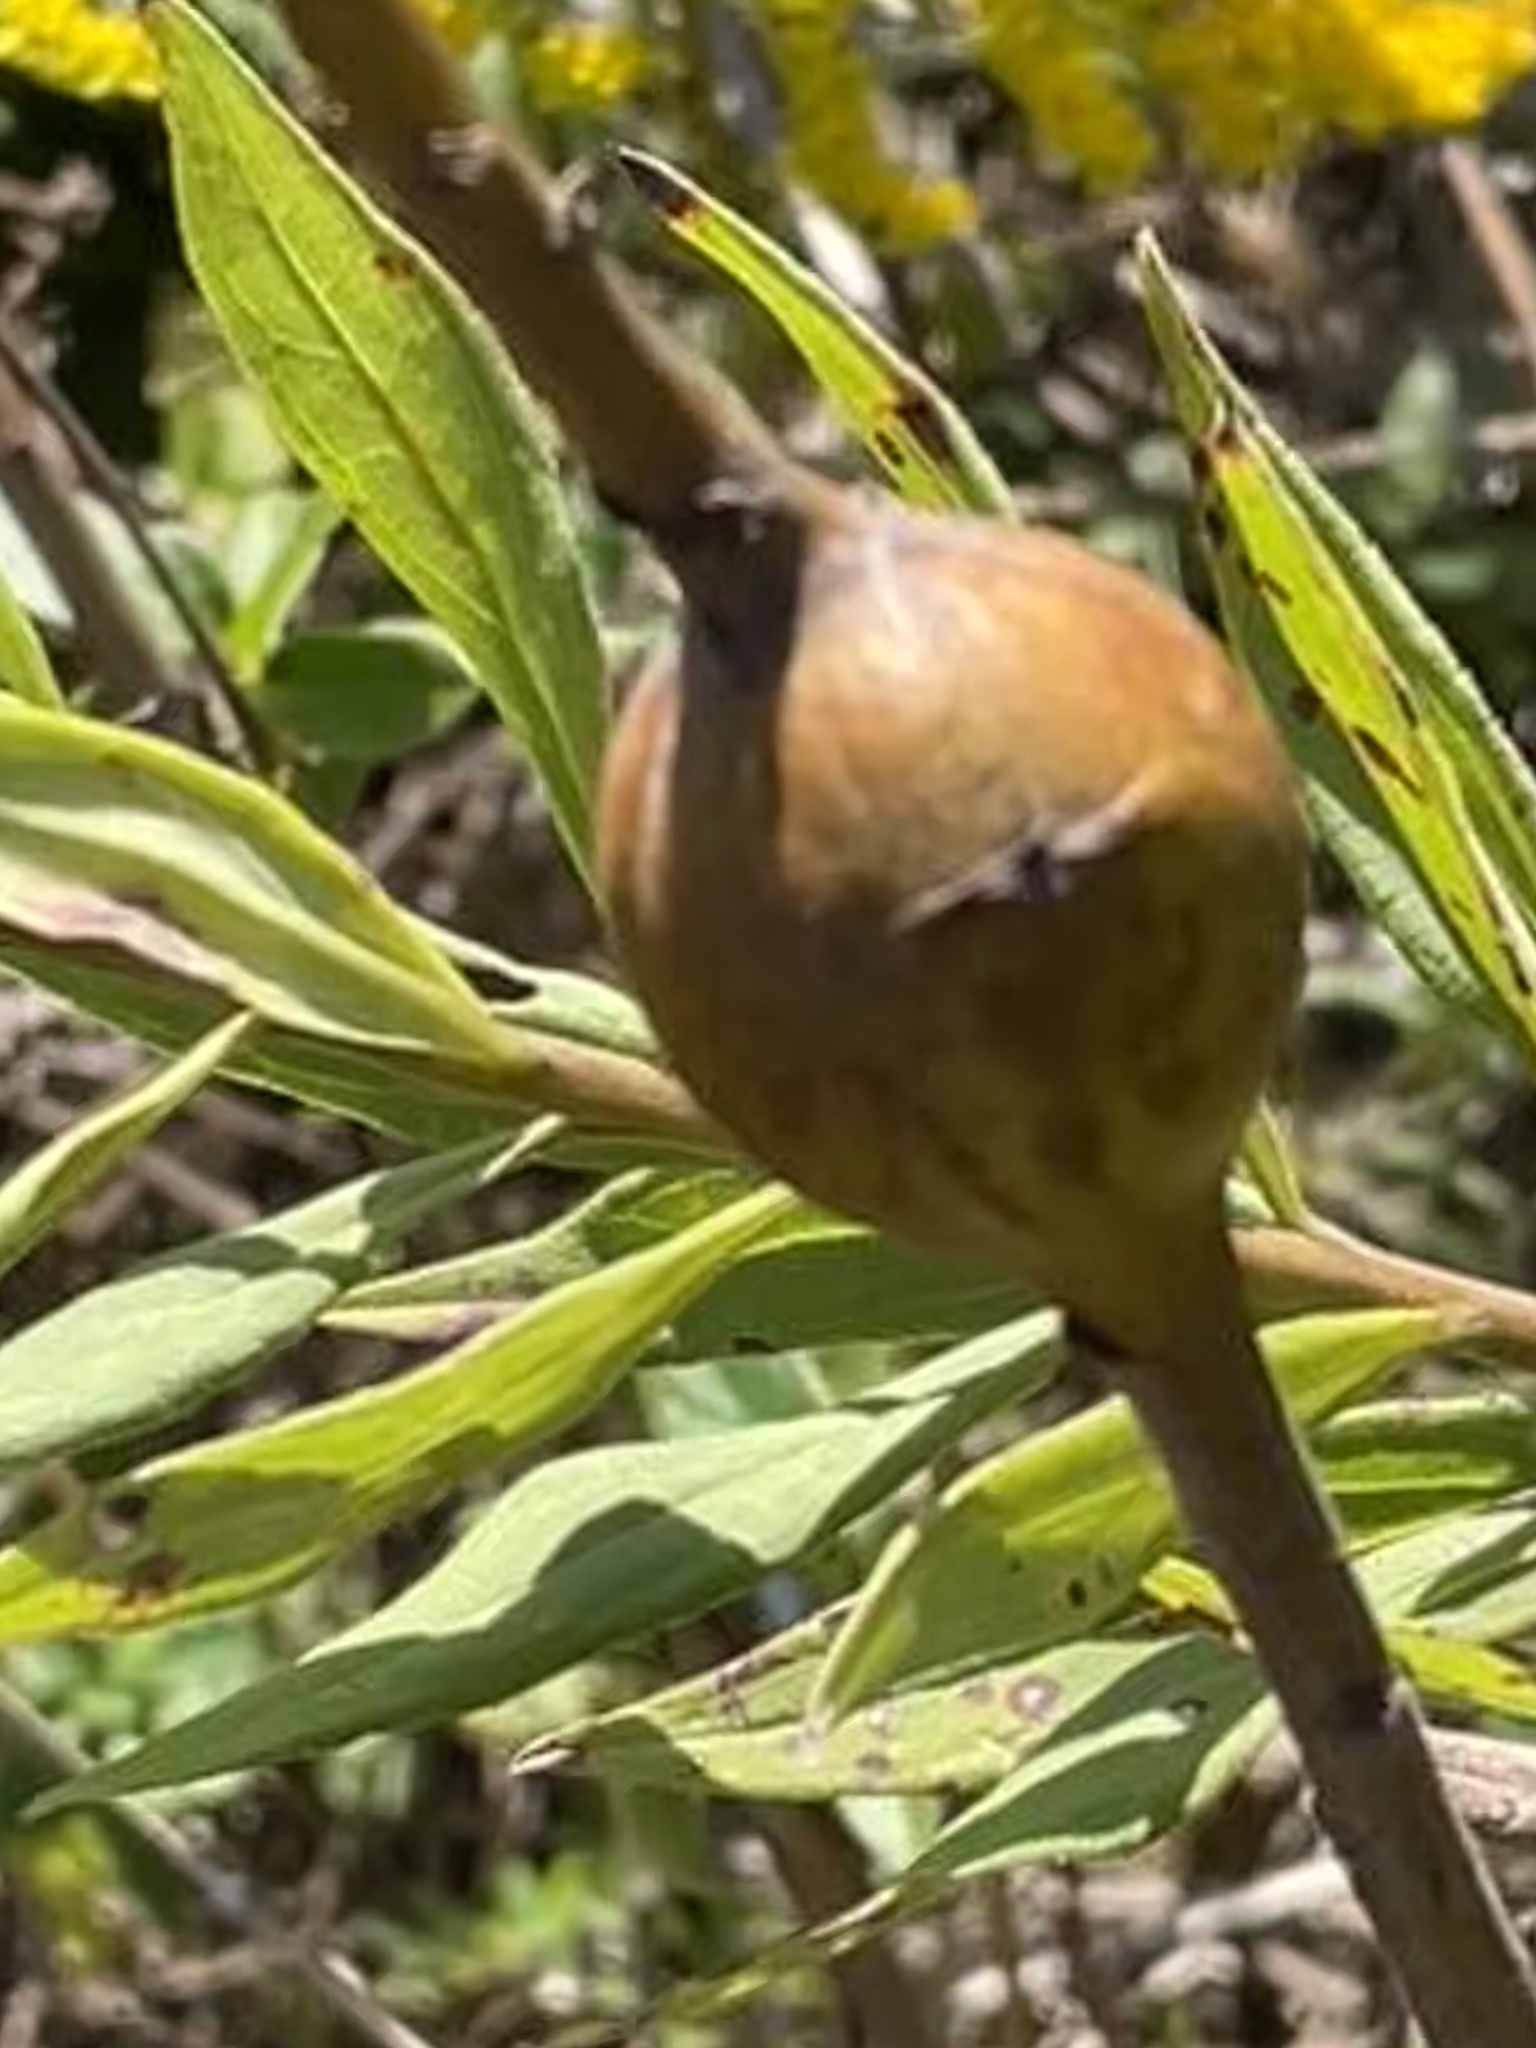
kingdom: Animalia
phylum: Arthropoda
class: Insecta
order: Diptera
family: Tephritidae
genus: Eurosta
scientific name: Eurosta solidaginis
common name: Goldenrod gall fly
